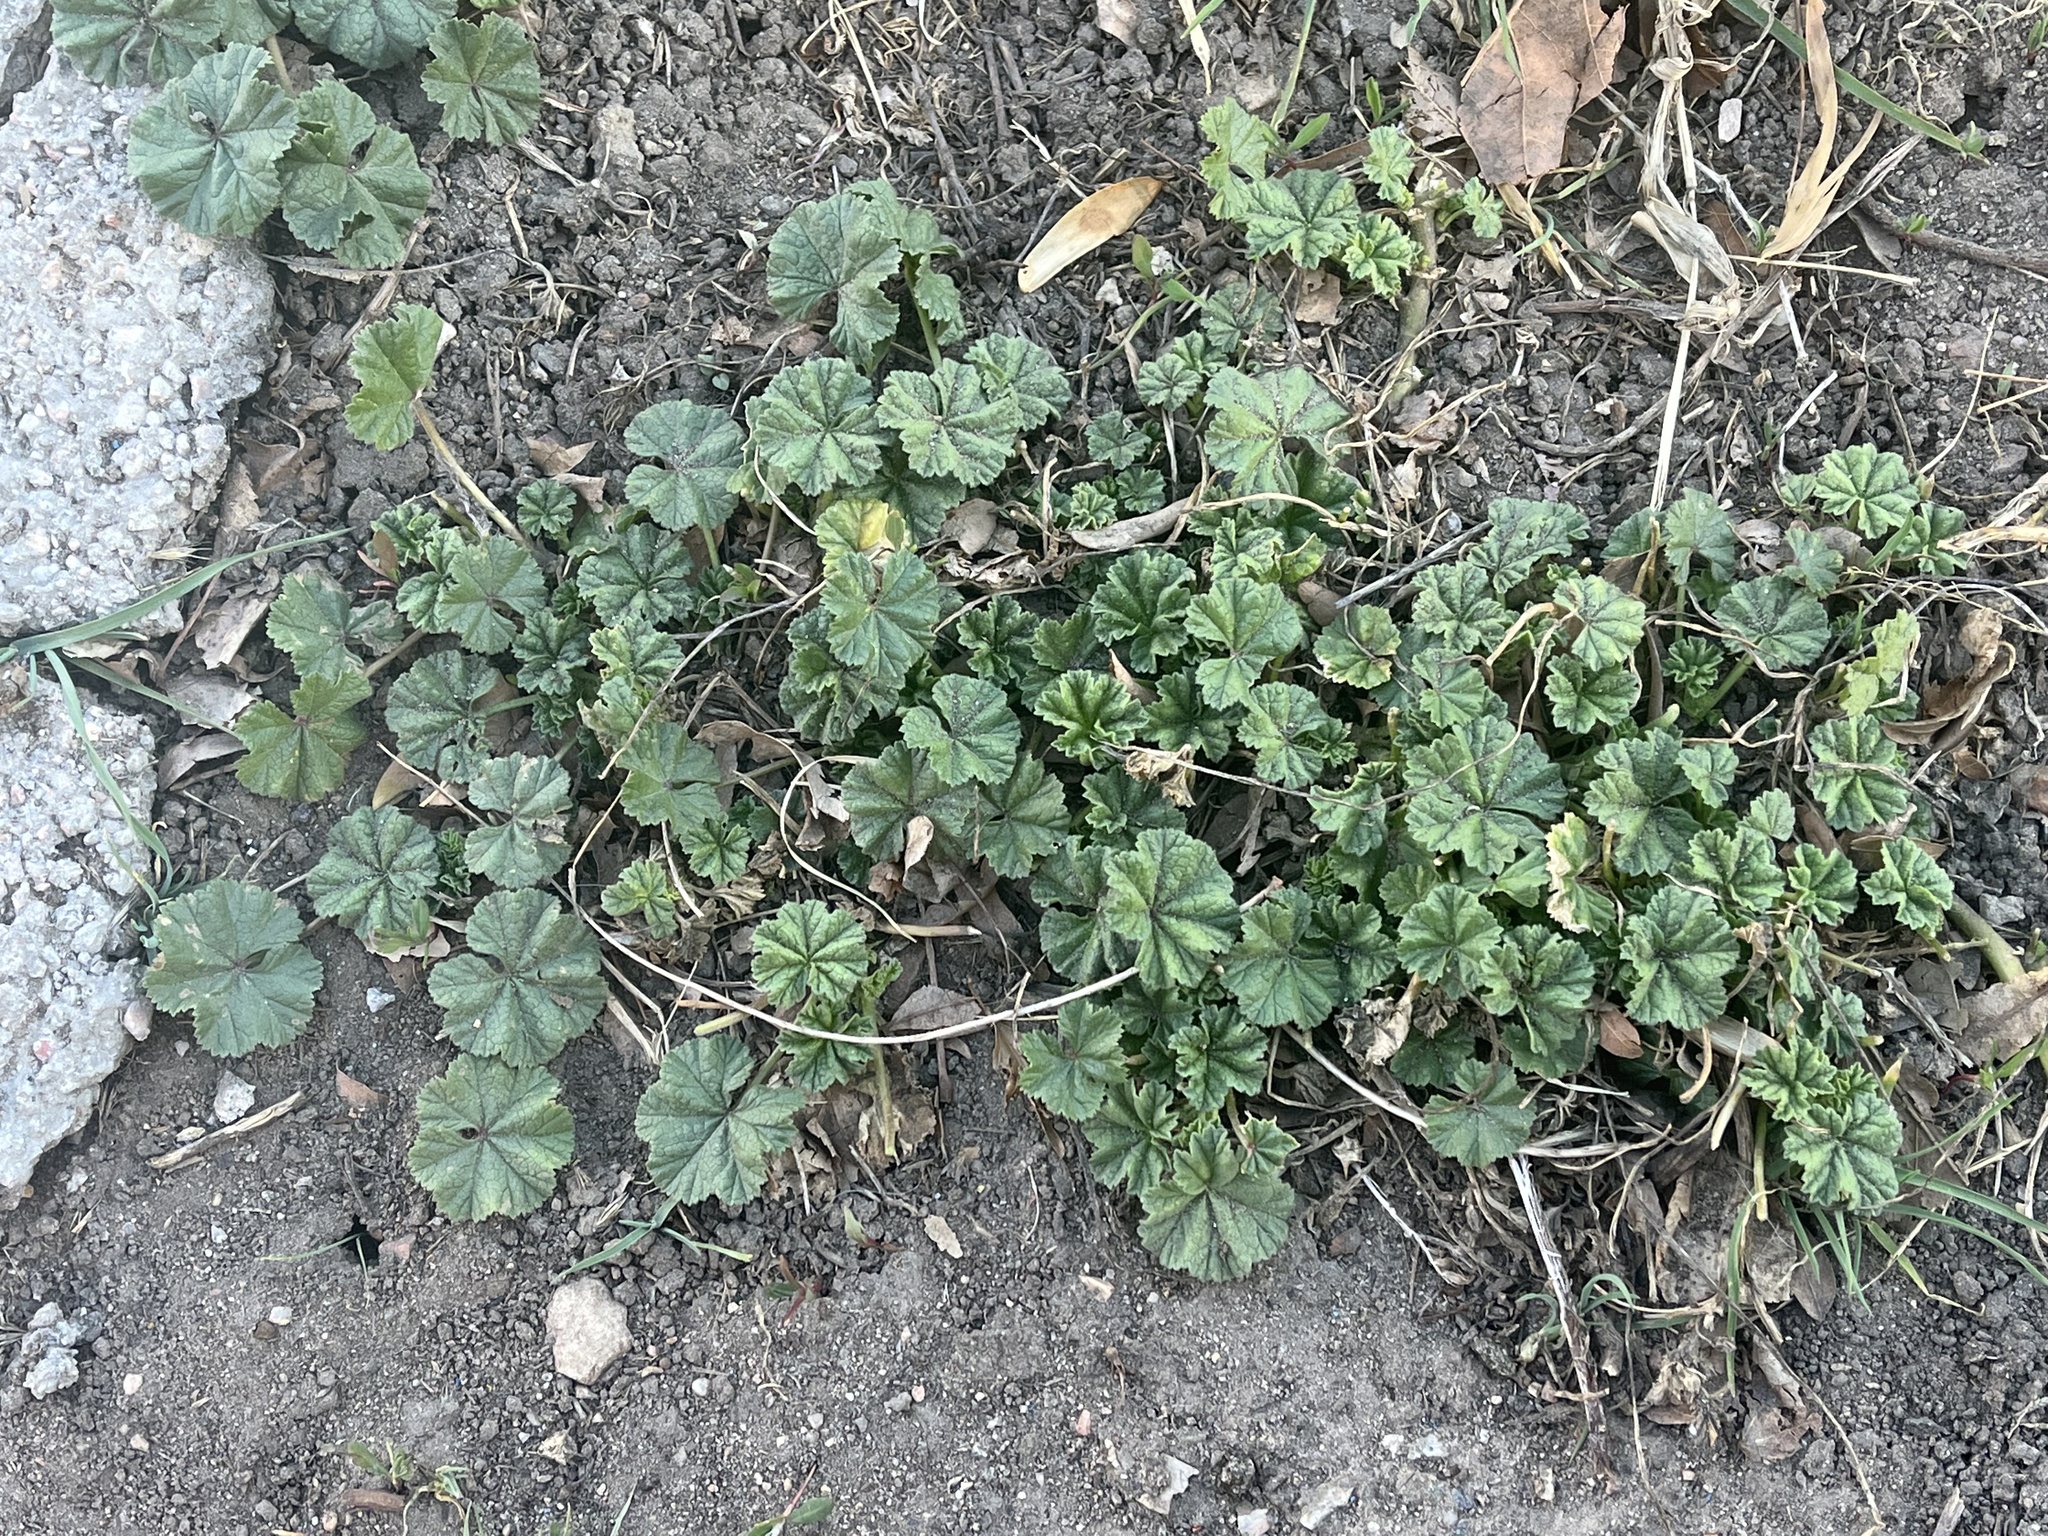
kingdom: Plantae
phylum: Tracheophyta
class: Magnoliopsida
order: Malvales
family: Malvaceae
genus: Malva
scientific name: Malva neglecta
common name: Common mallow
